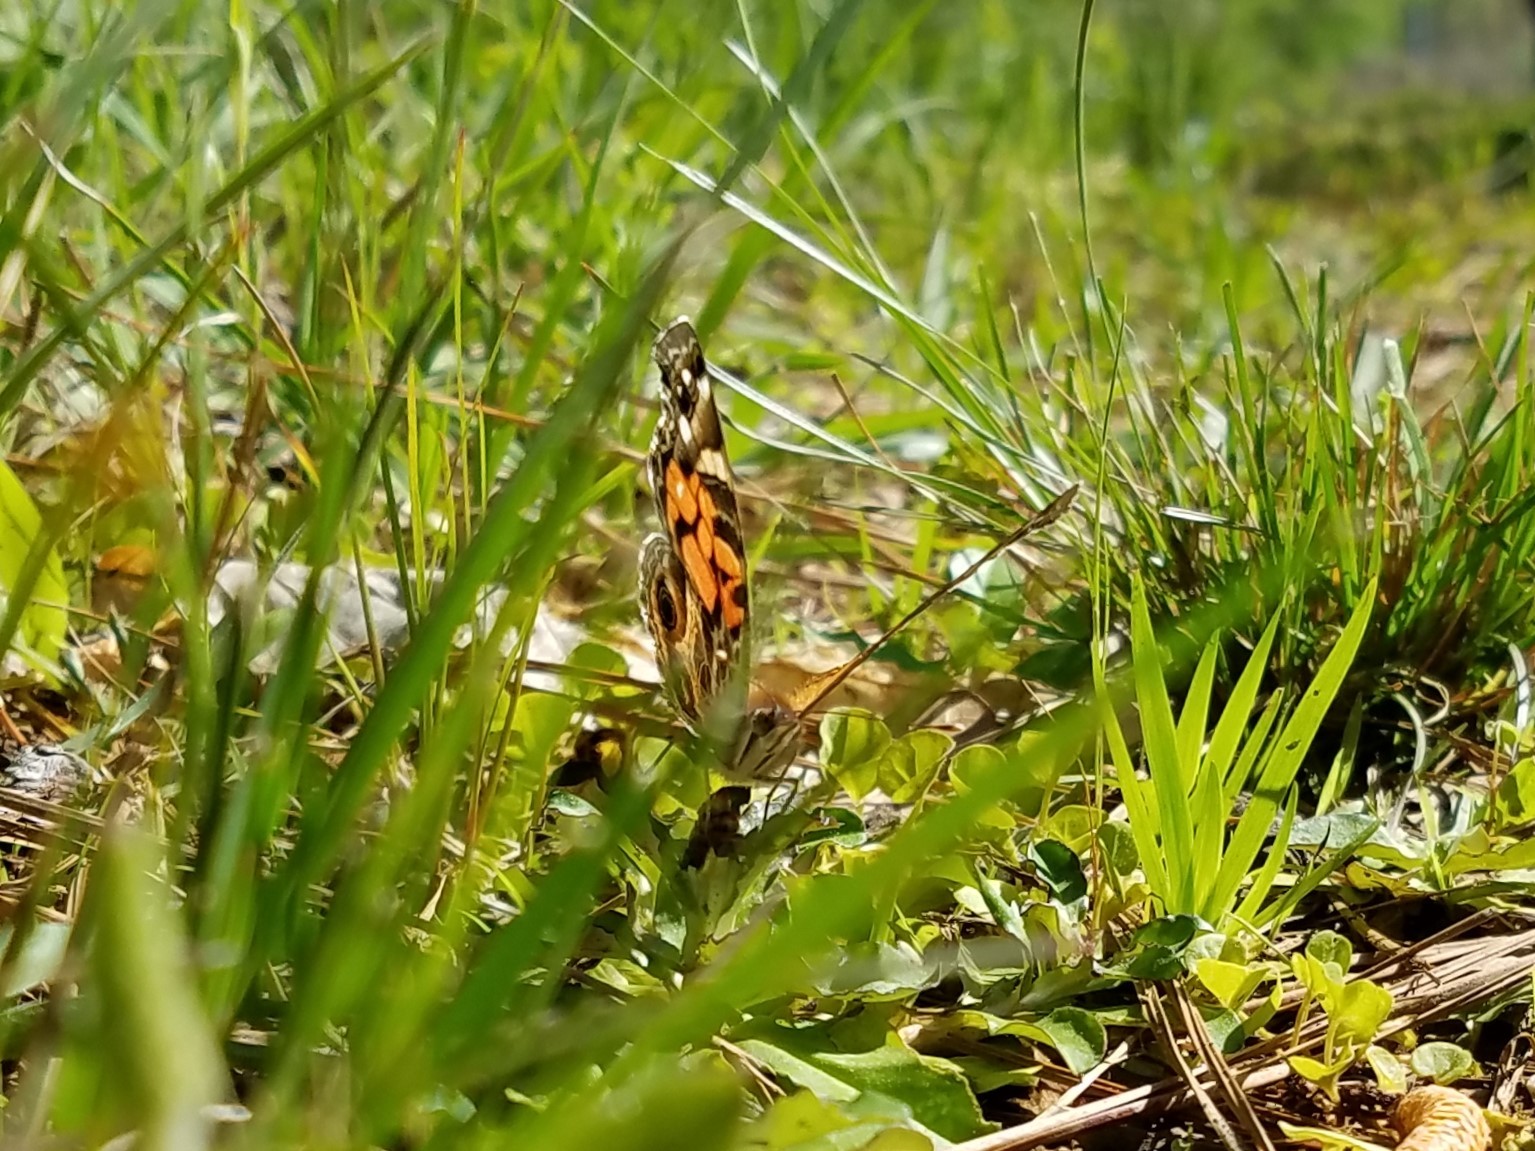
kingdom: Animalia
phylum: Arthropoda
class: Insecta
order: Lepidoptera
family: Nymphalidae
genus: Vanessa
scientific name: Vanessa virginiensis
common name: American lady
